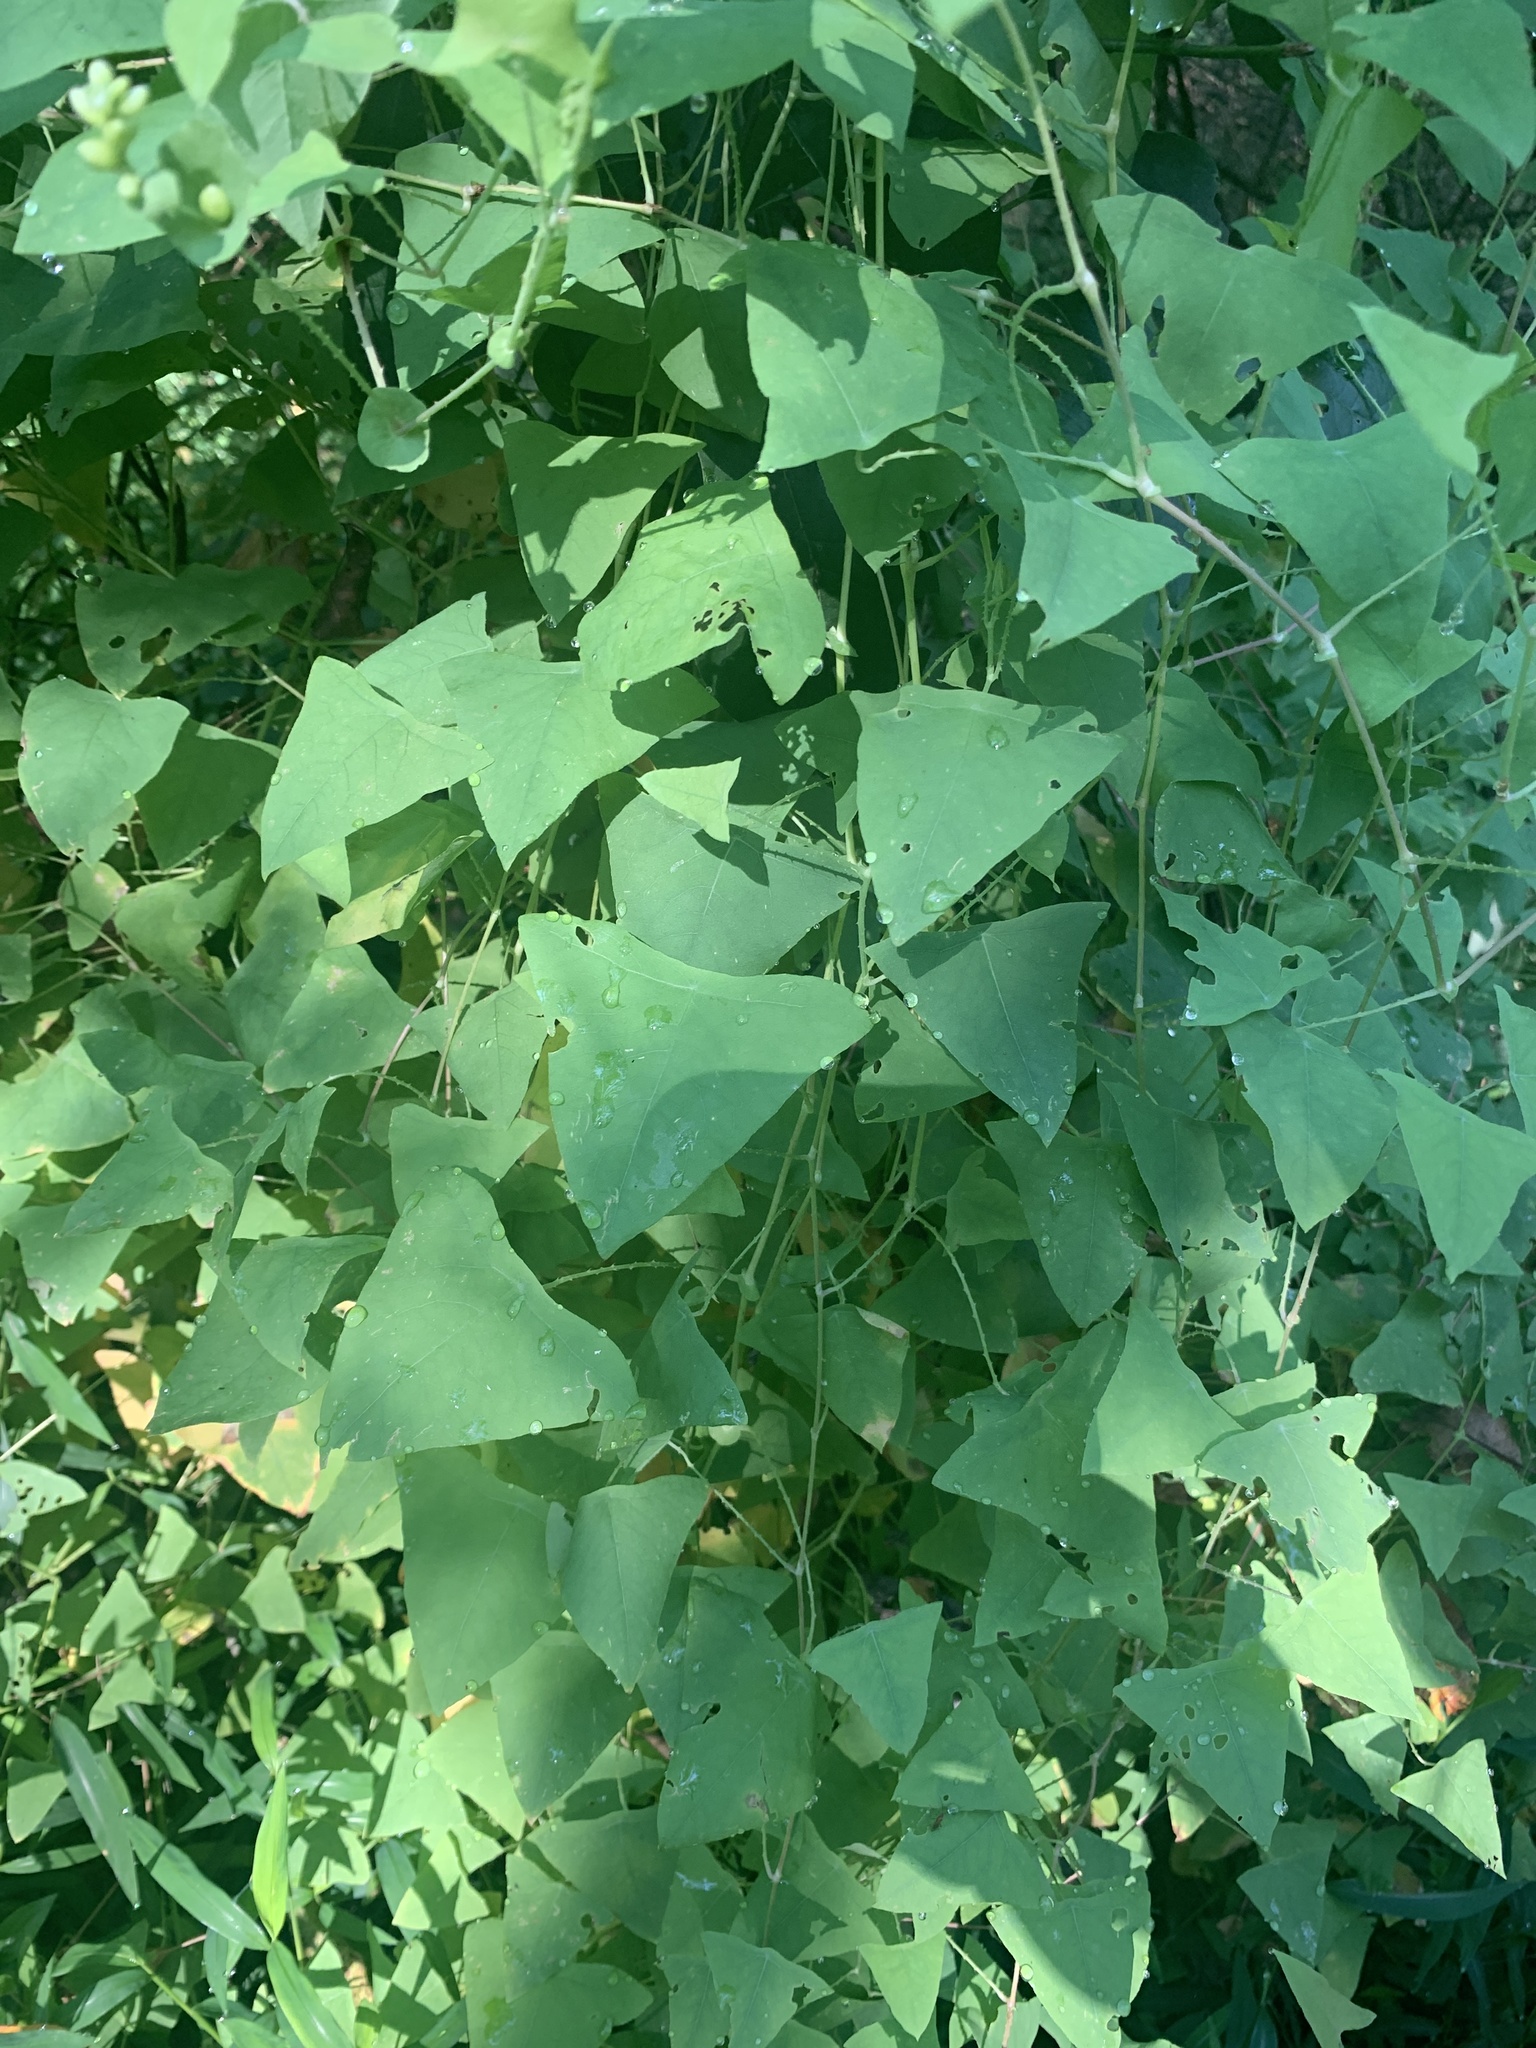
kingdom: Plantae
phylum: Tracheophyta
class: Magnoliopsida
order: Caryophyllales
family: Polygonaceae
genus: Persicaria
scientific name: Persicaria perfoliata
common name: Asiatic tearthumb
